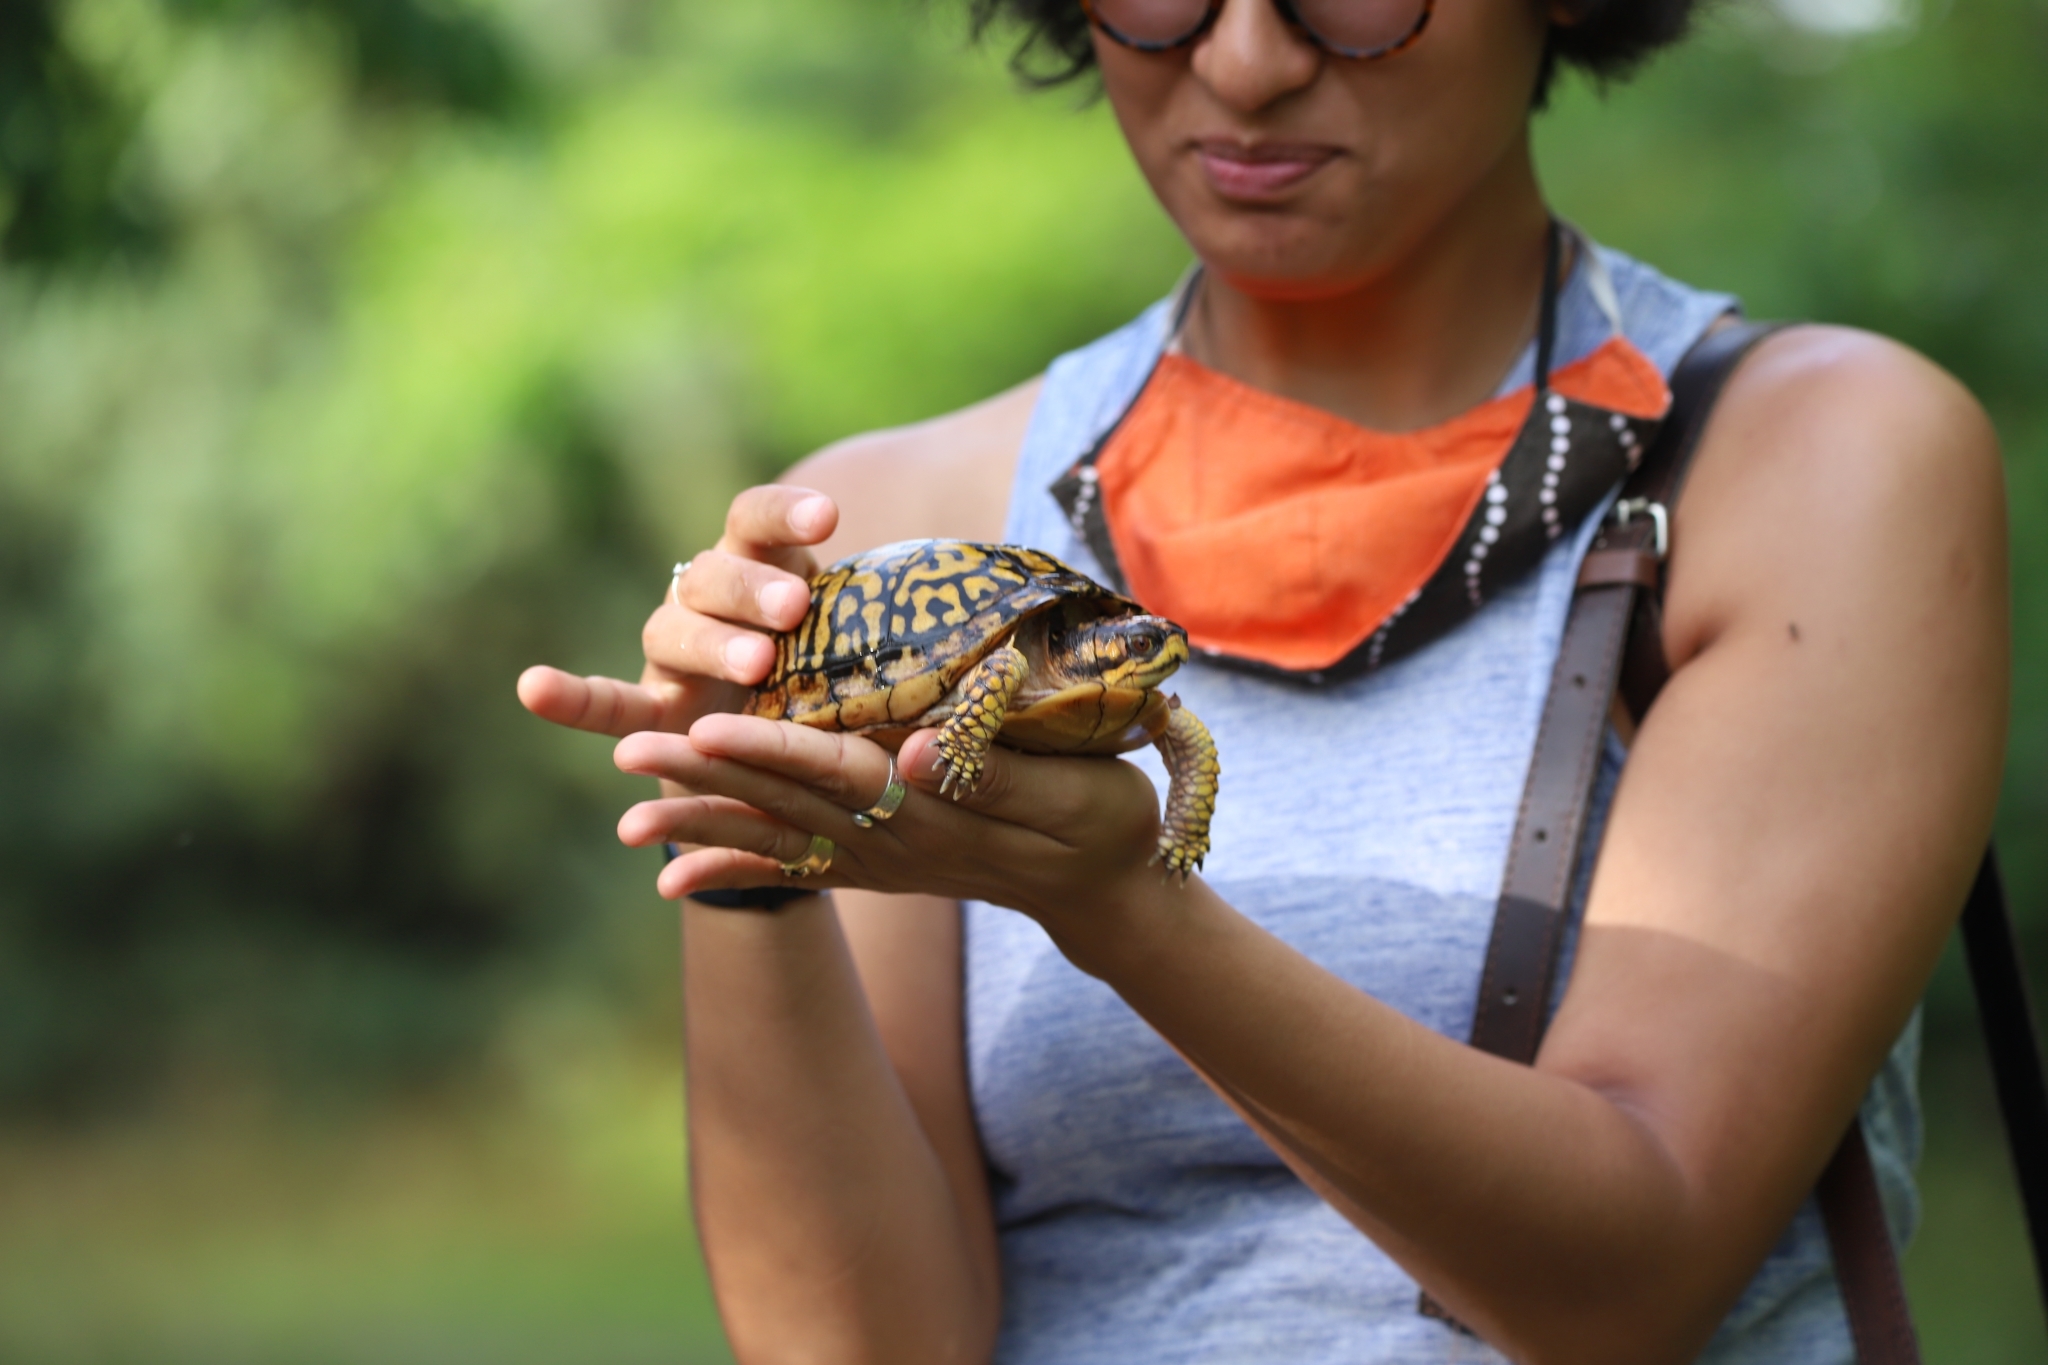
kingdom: Animalia
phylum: Chordata
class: Testudines
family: Emydidae
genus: Terrapene
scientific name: Terrapene carolina
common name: Common box turtle
